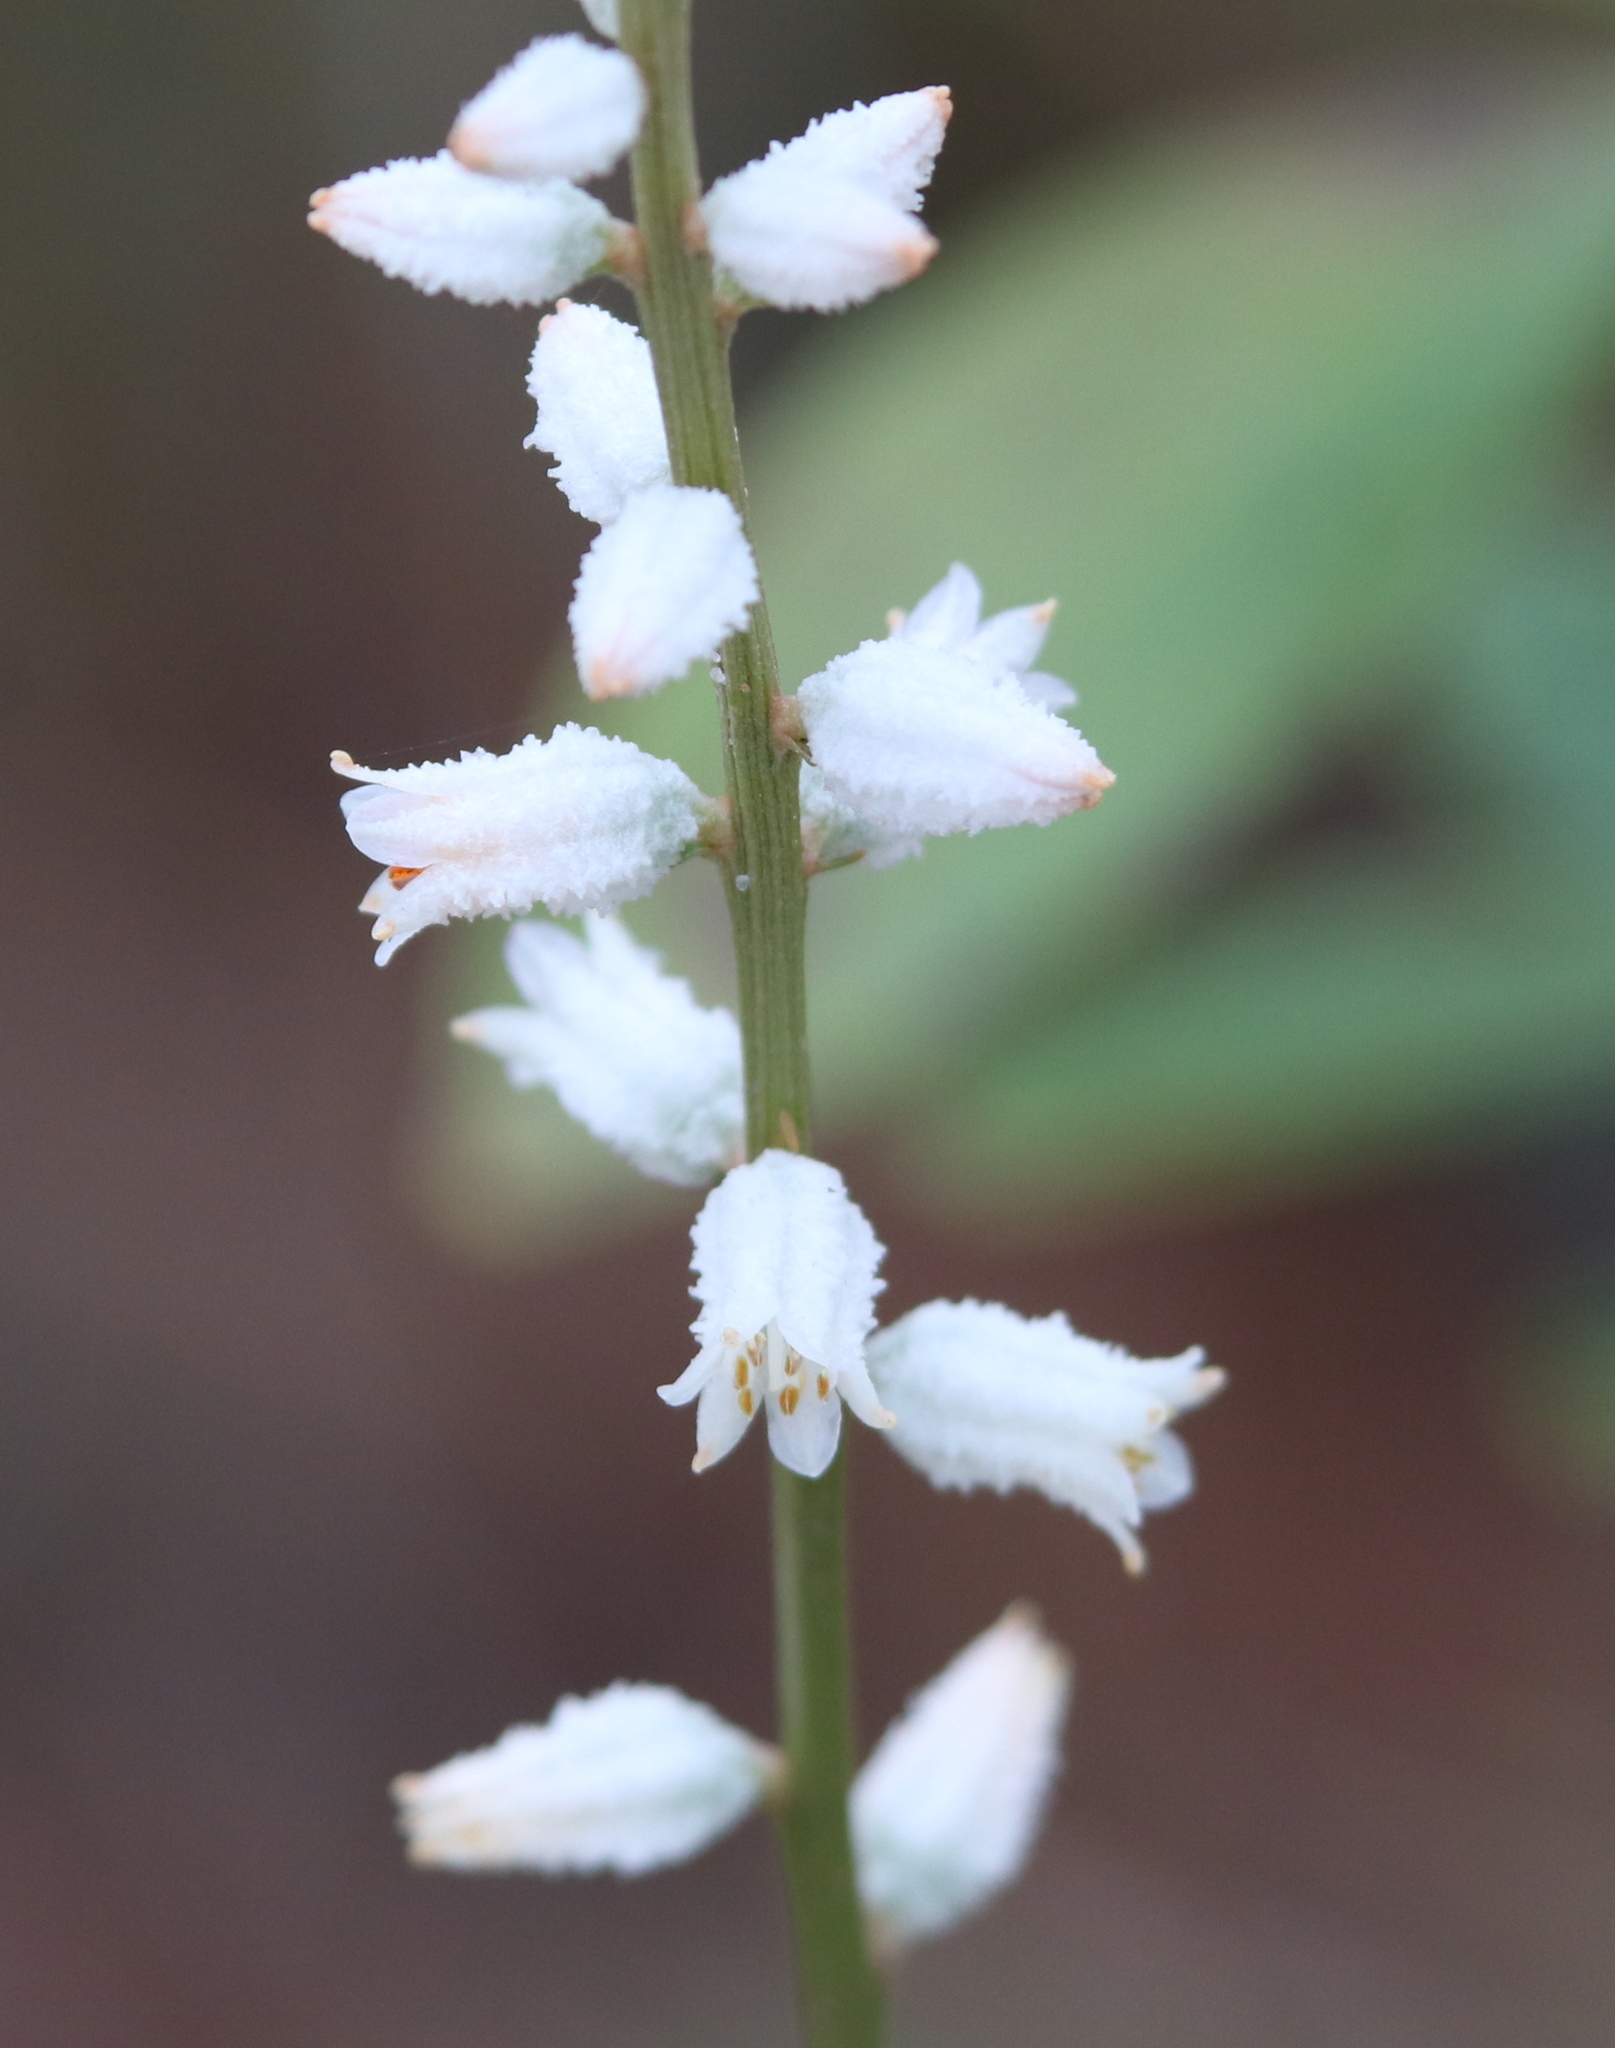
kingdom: Plantae
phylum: Tracheophyta
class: Liliopsida
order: Dioscoreales
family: Nartheciaceae
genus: Aletris
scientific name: Aletris farinosa
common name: Colicroot
